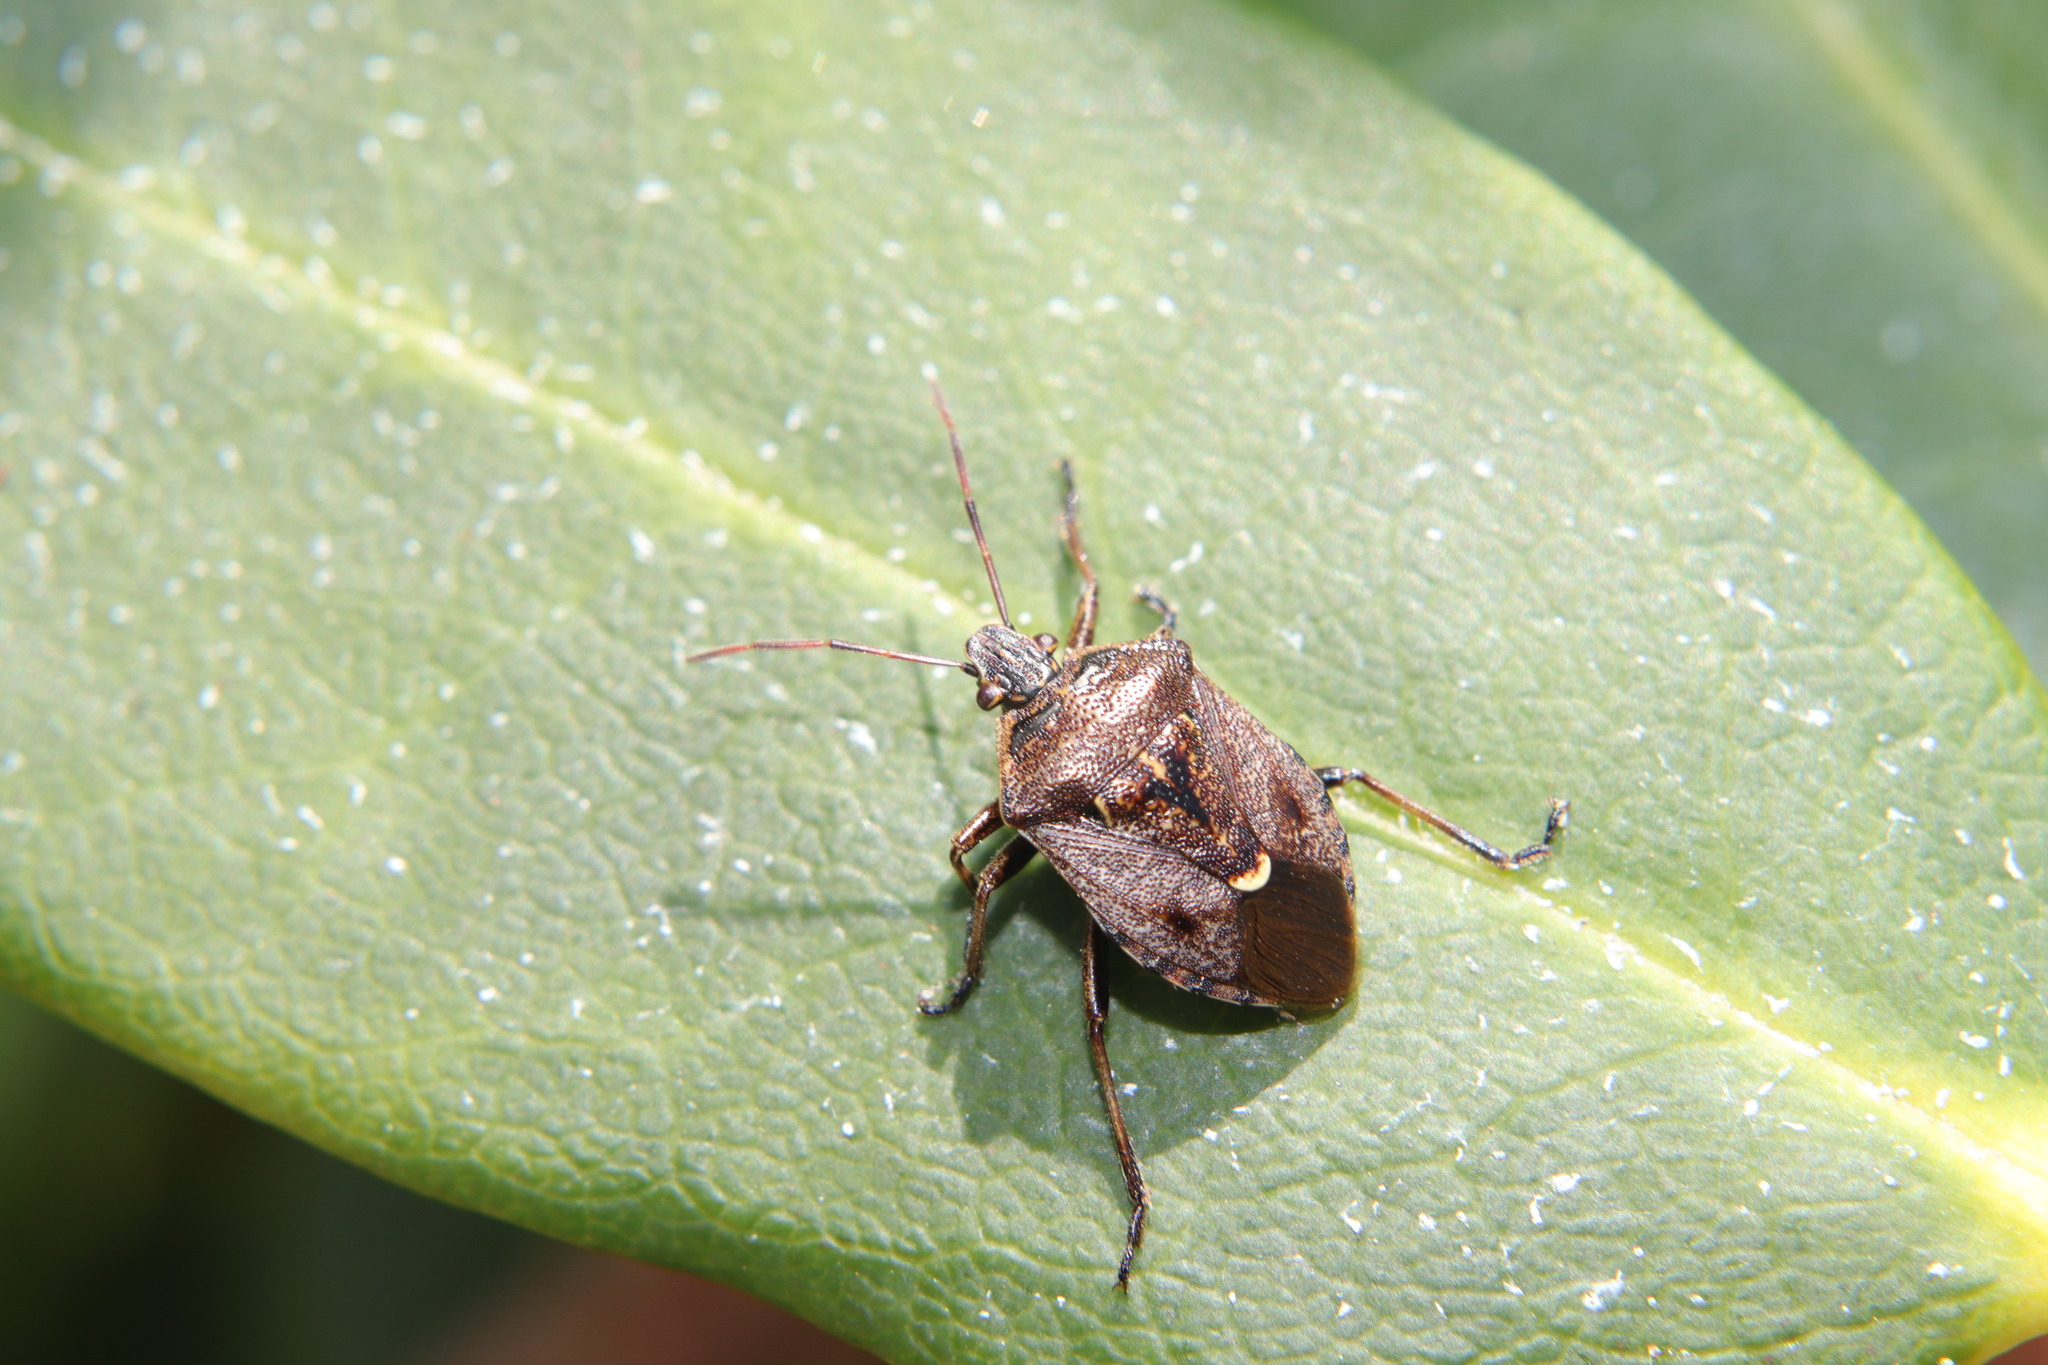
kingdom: Animalia
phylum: Arthropoda
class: Insecta
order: Hemiptera
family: Pentatomidae
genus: Cermatulus
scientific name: Cermatulus nasalis
